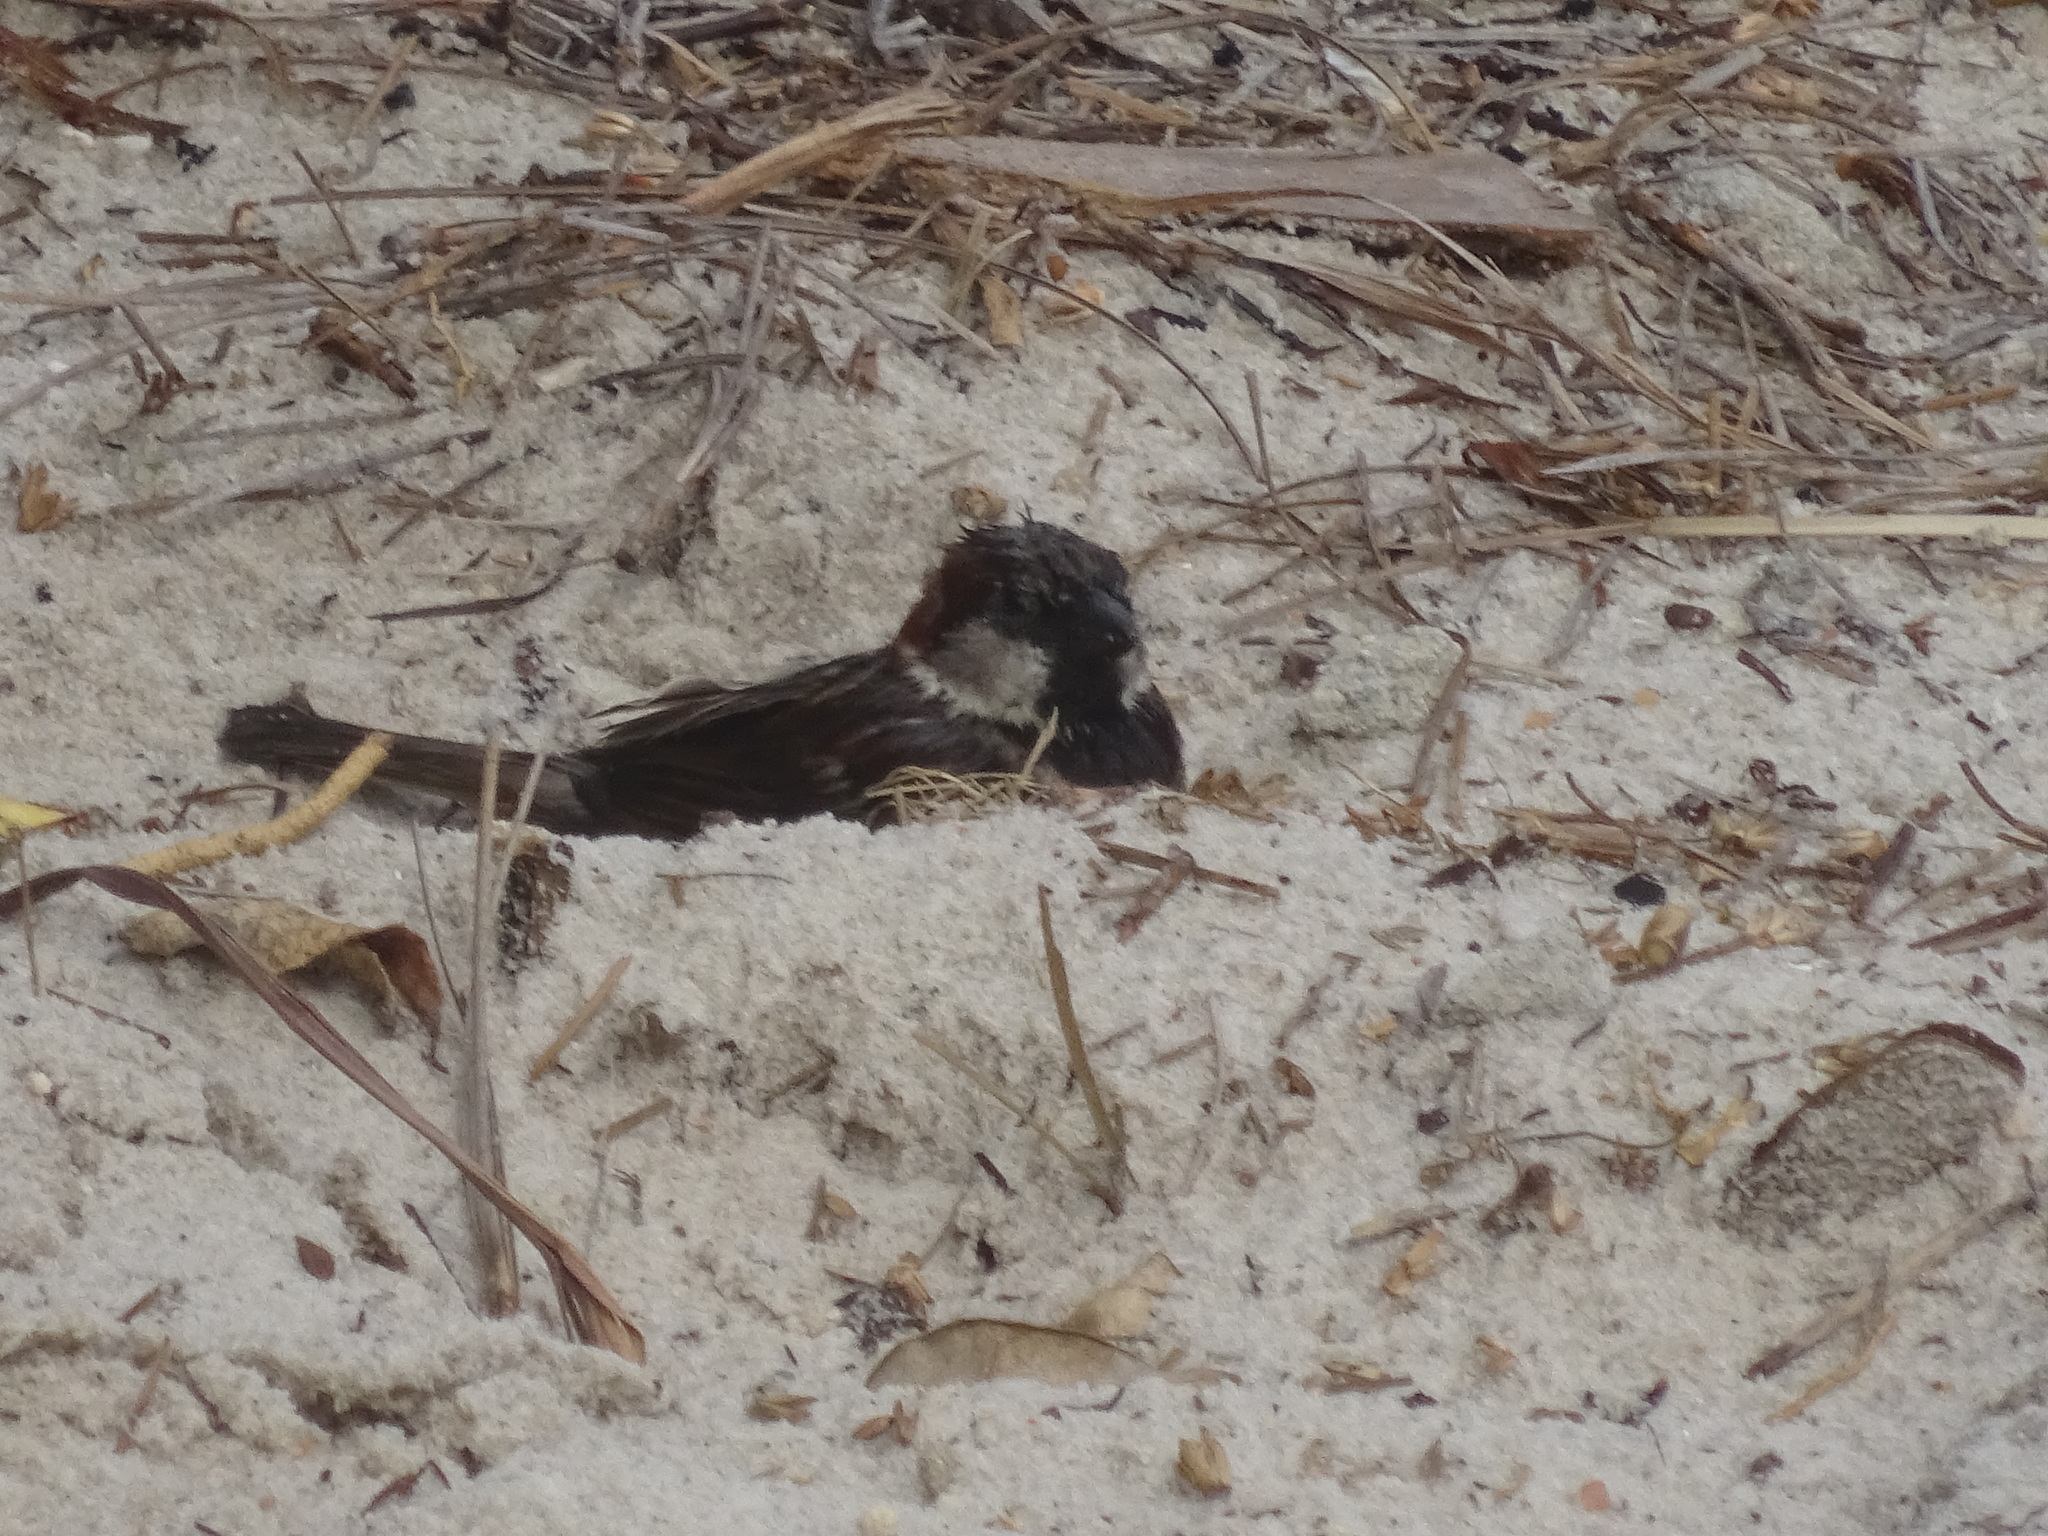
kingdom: Animalia
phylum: Chordata
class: Aves
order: Passeriformes
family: Passeridae
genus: Passer
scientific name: Passer domesticus
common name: House sparrow
